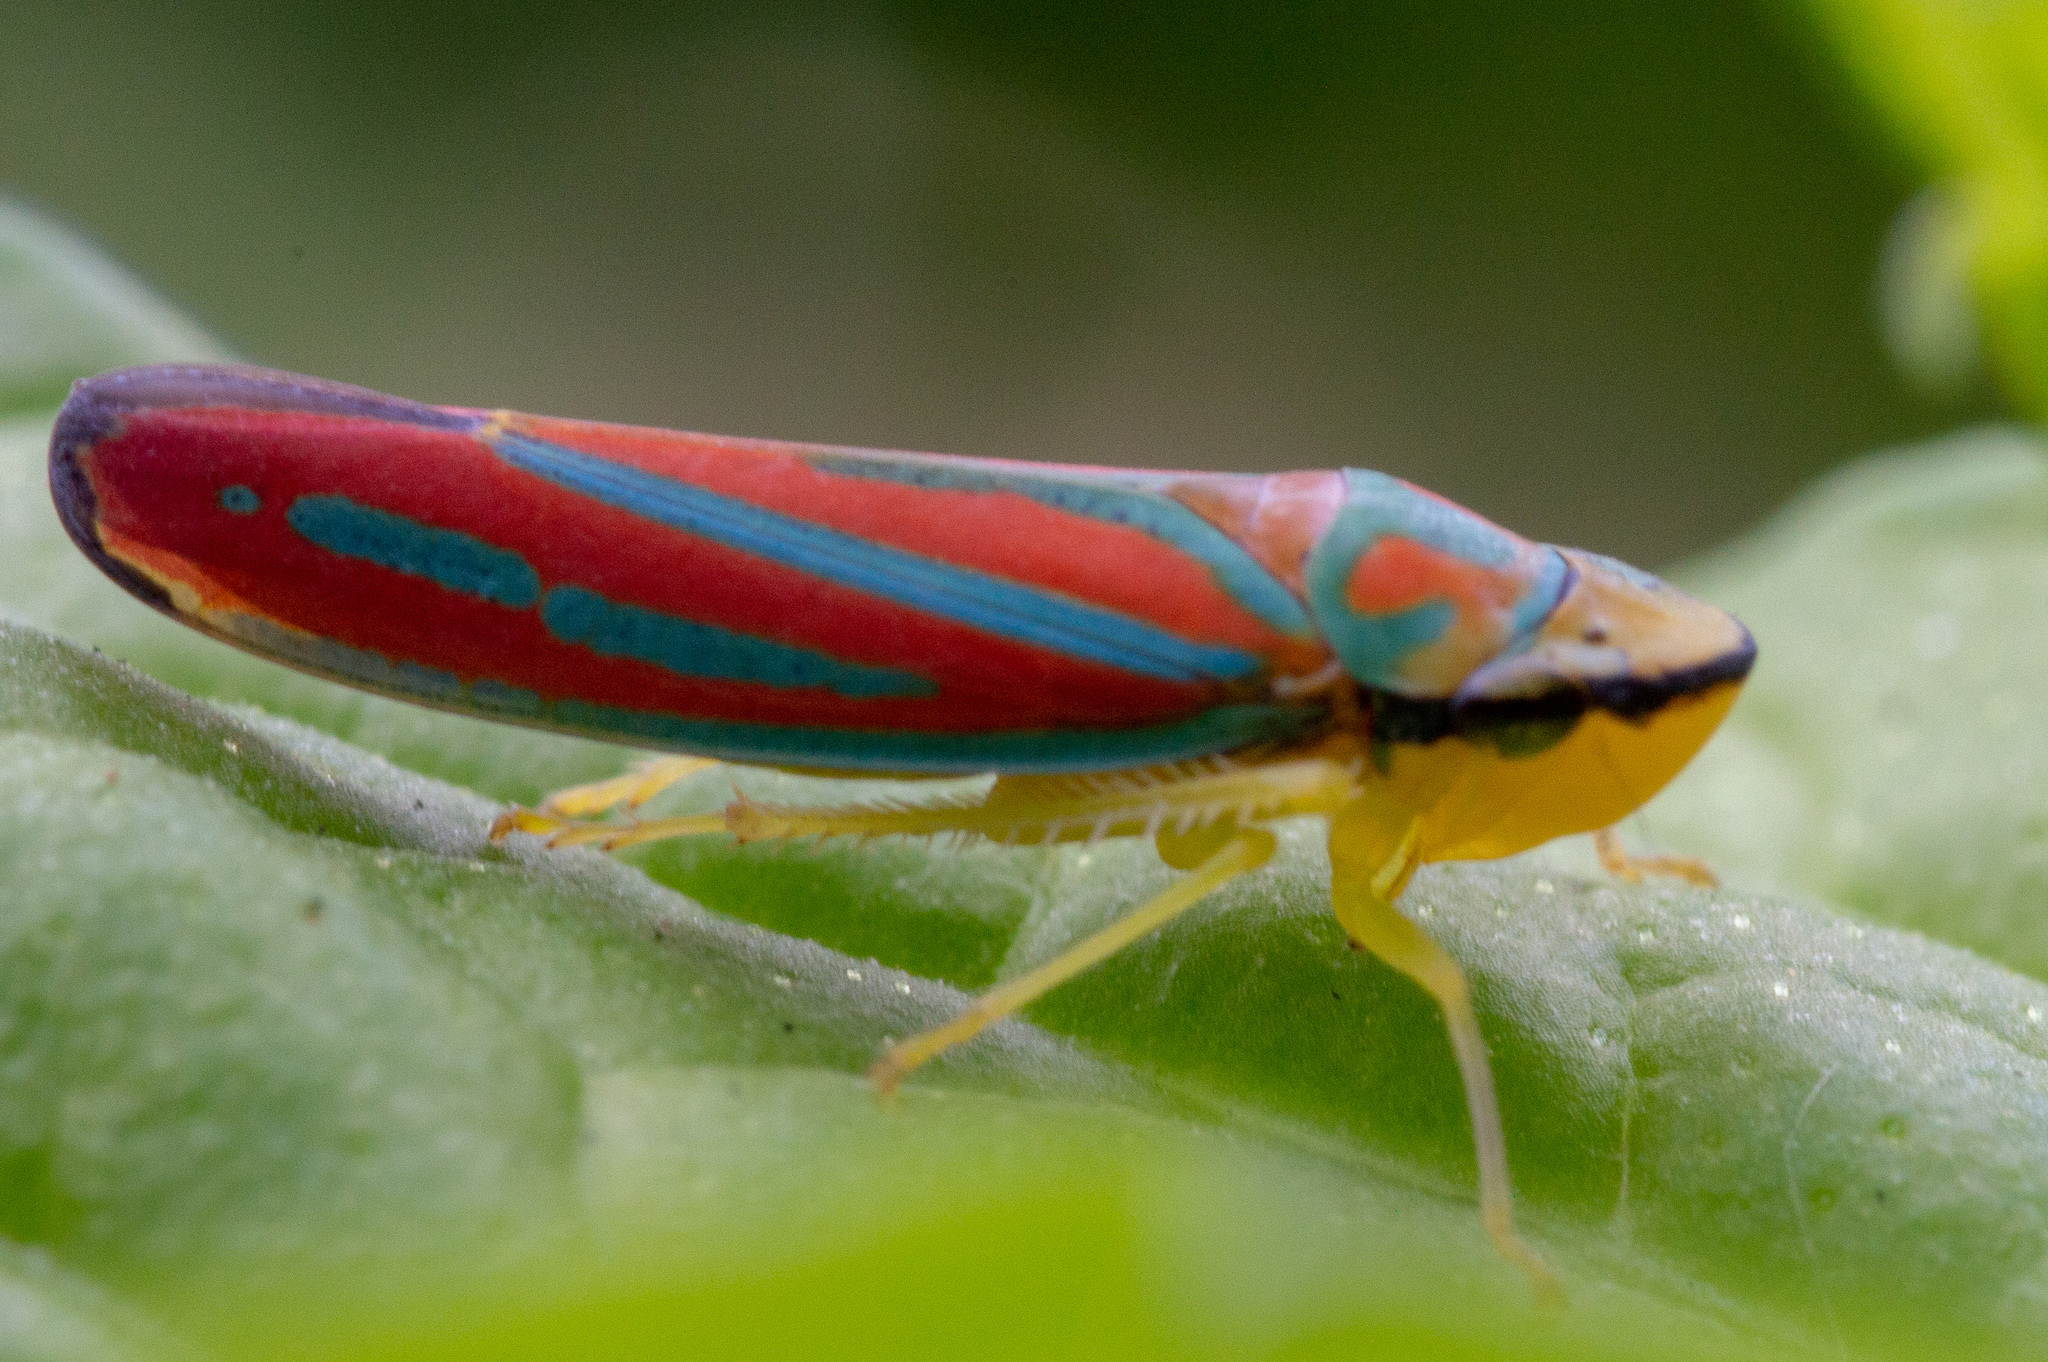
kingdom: Animalia
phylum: Arthropoda
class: Insecta
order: Hemiptera
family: Cicadellidae
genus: Graphocephala
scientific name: Graphocephala coccinea
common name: Candy-striped leafhopper
